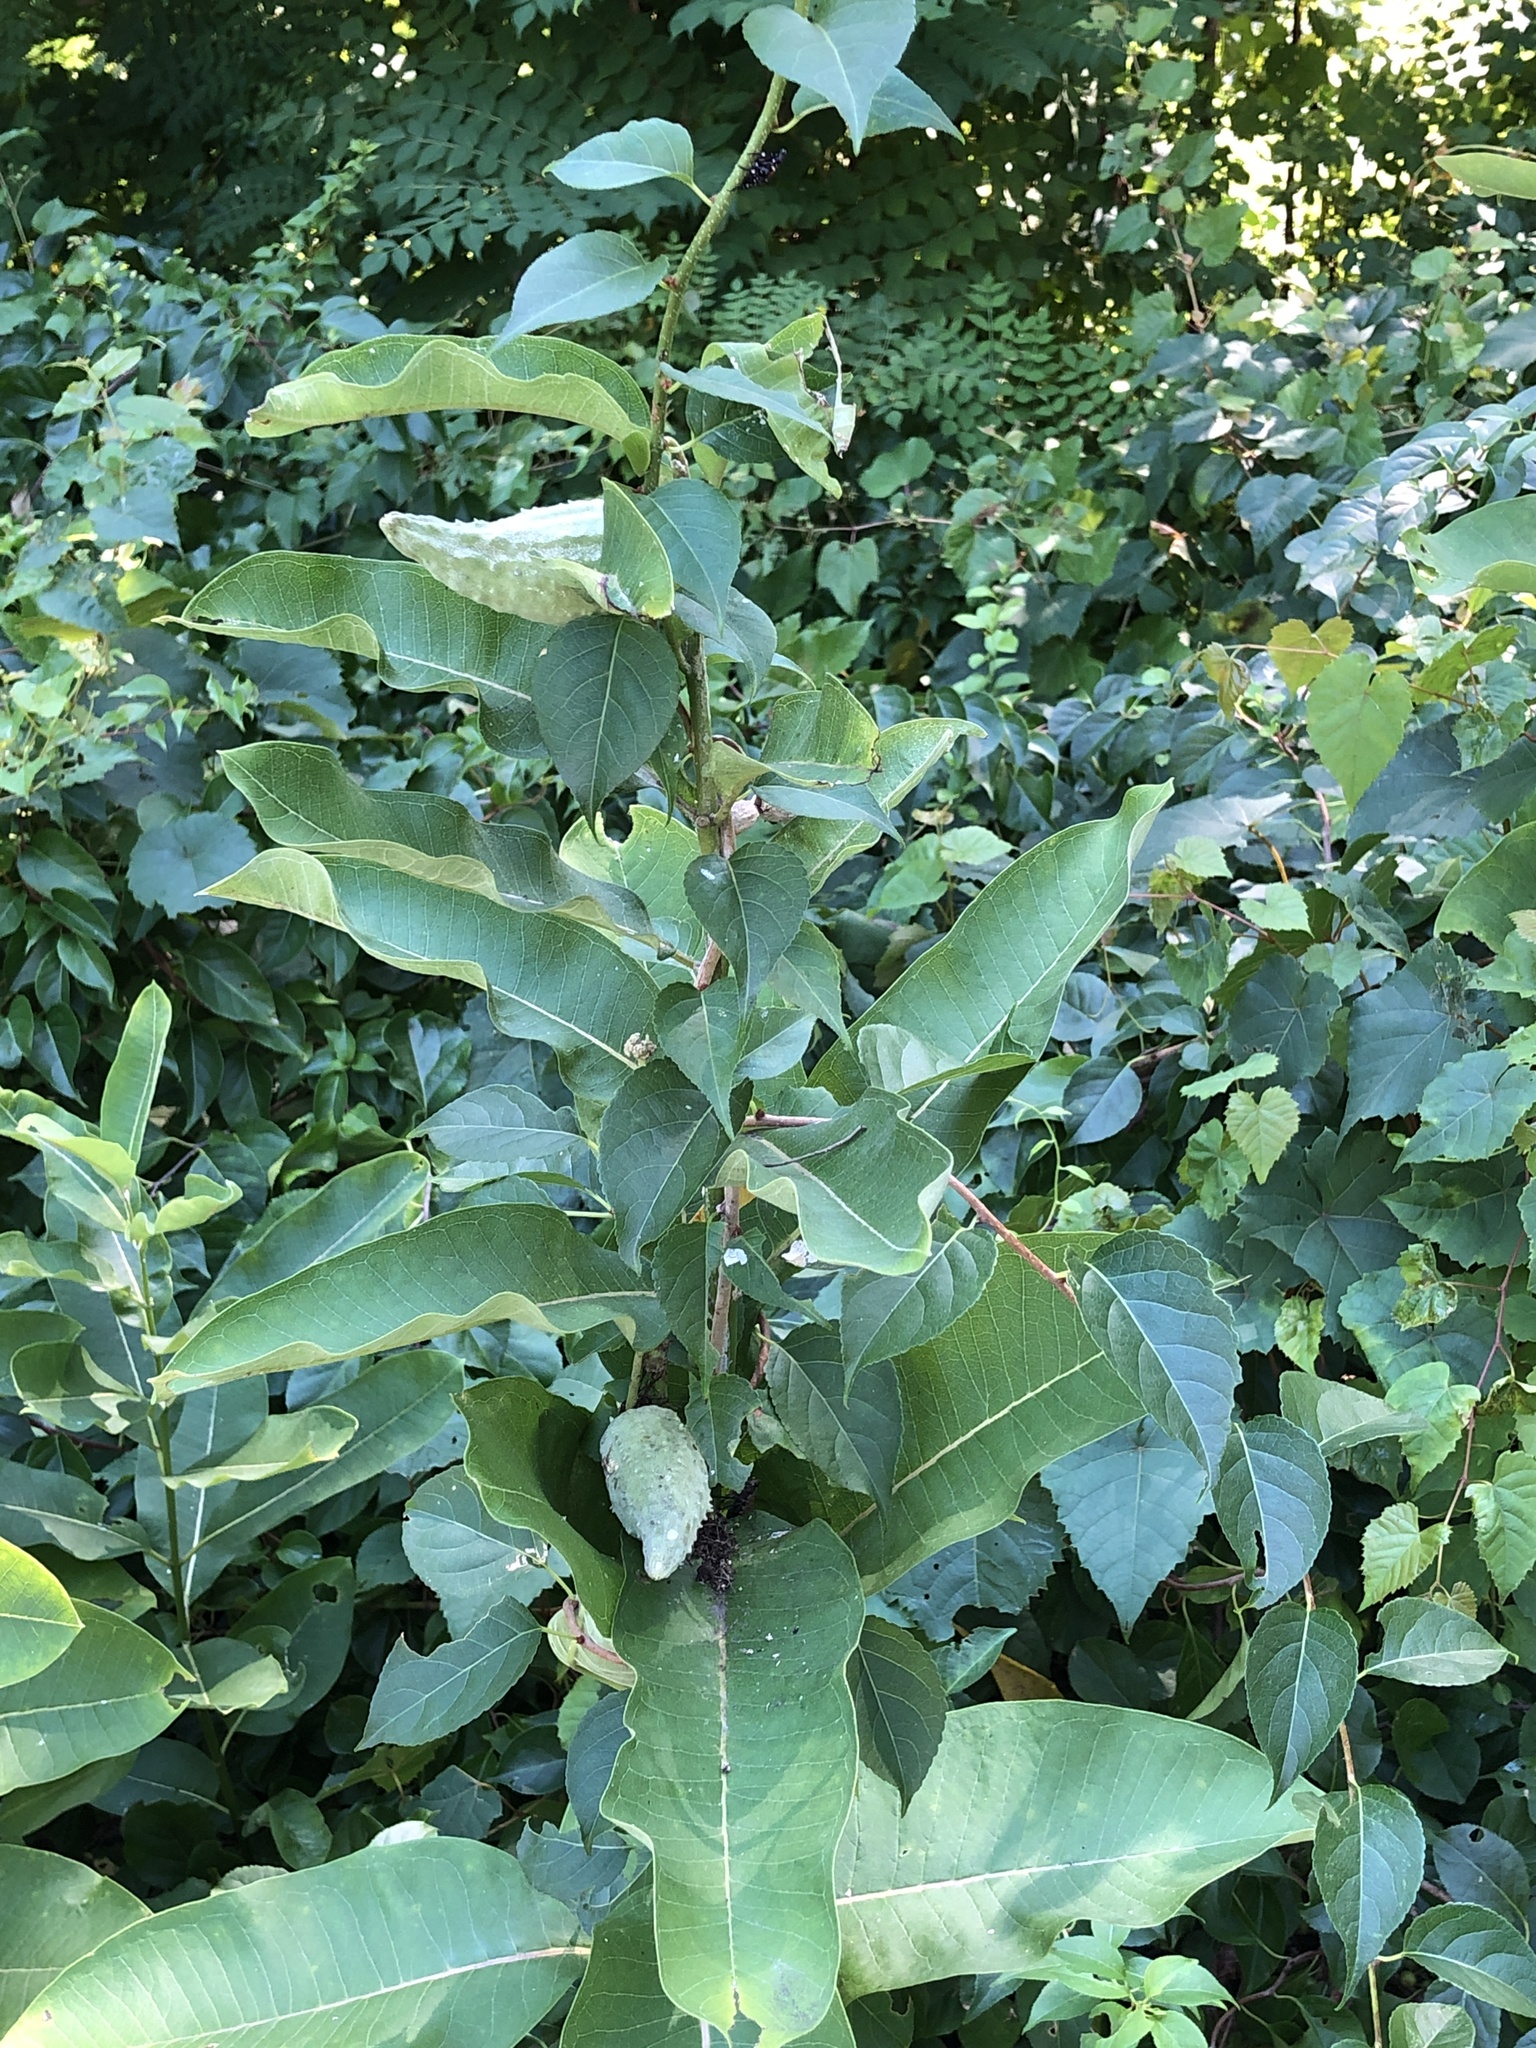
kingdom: Plantae
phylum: Tracheophyta
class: Magnoliopsida
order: Gentianales
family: Apocynaceae
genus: Asclepias
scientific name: Asclepias syriaca
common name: Common milkweed
